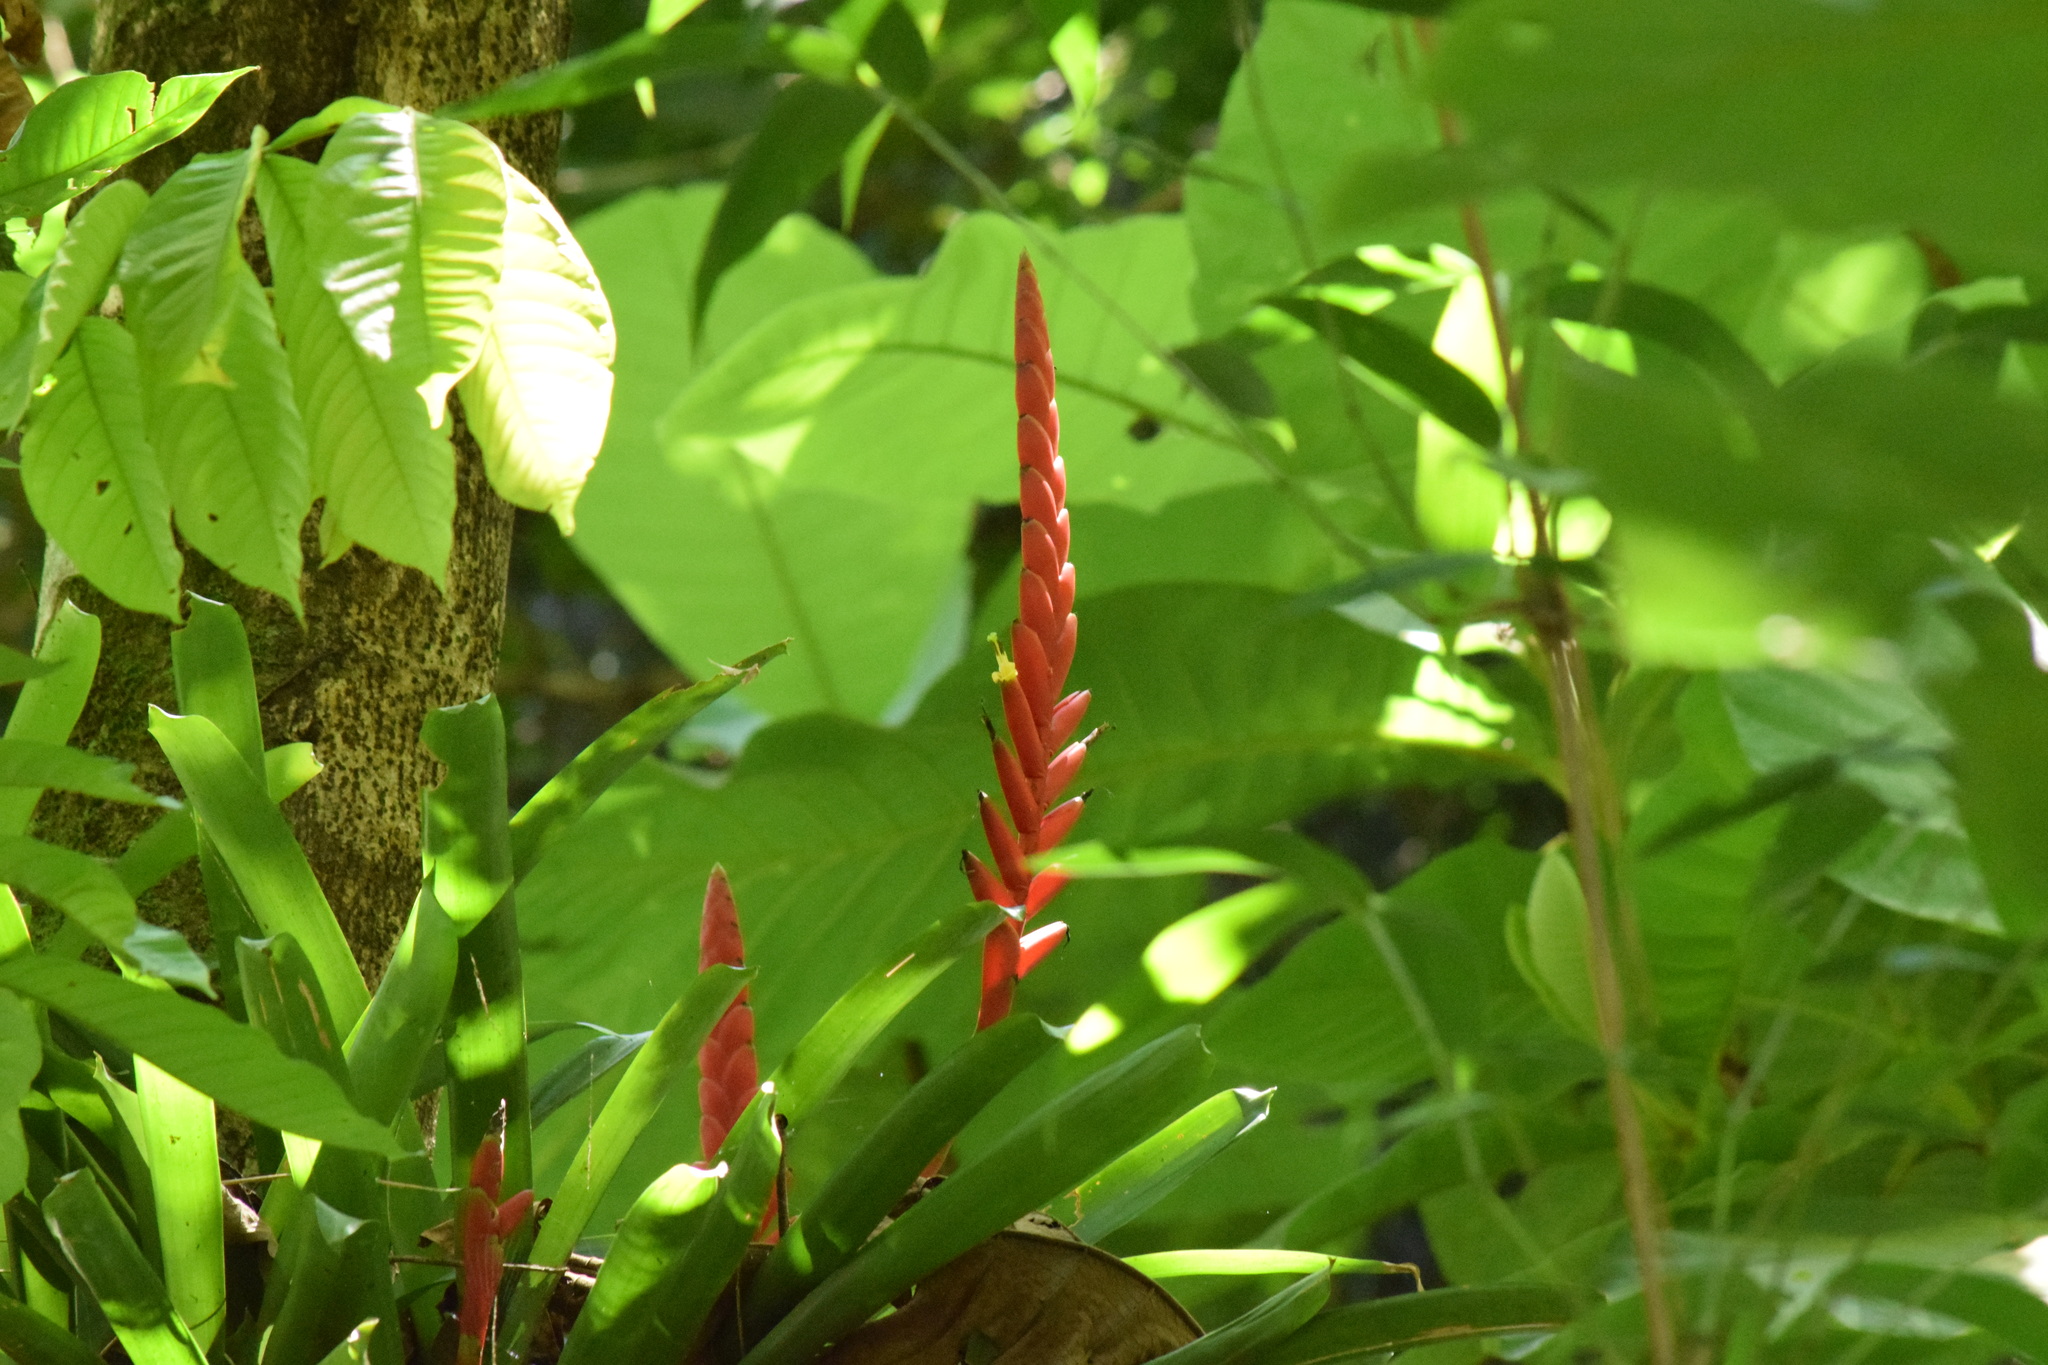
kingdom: Plantae
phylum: Tracheophyta
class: Liliopsida
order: Poales
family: Bromeliaceae
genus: Vriesea
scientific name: Vriesea ensiformis
